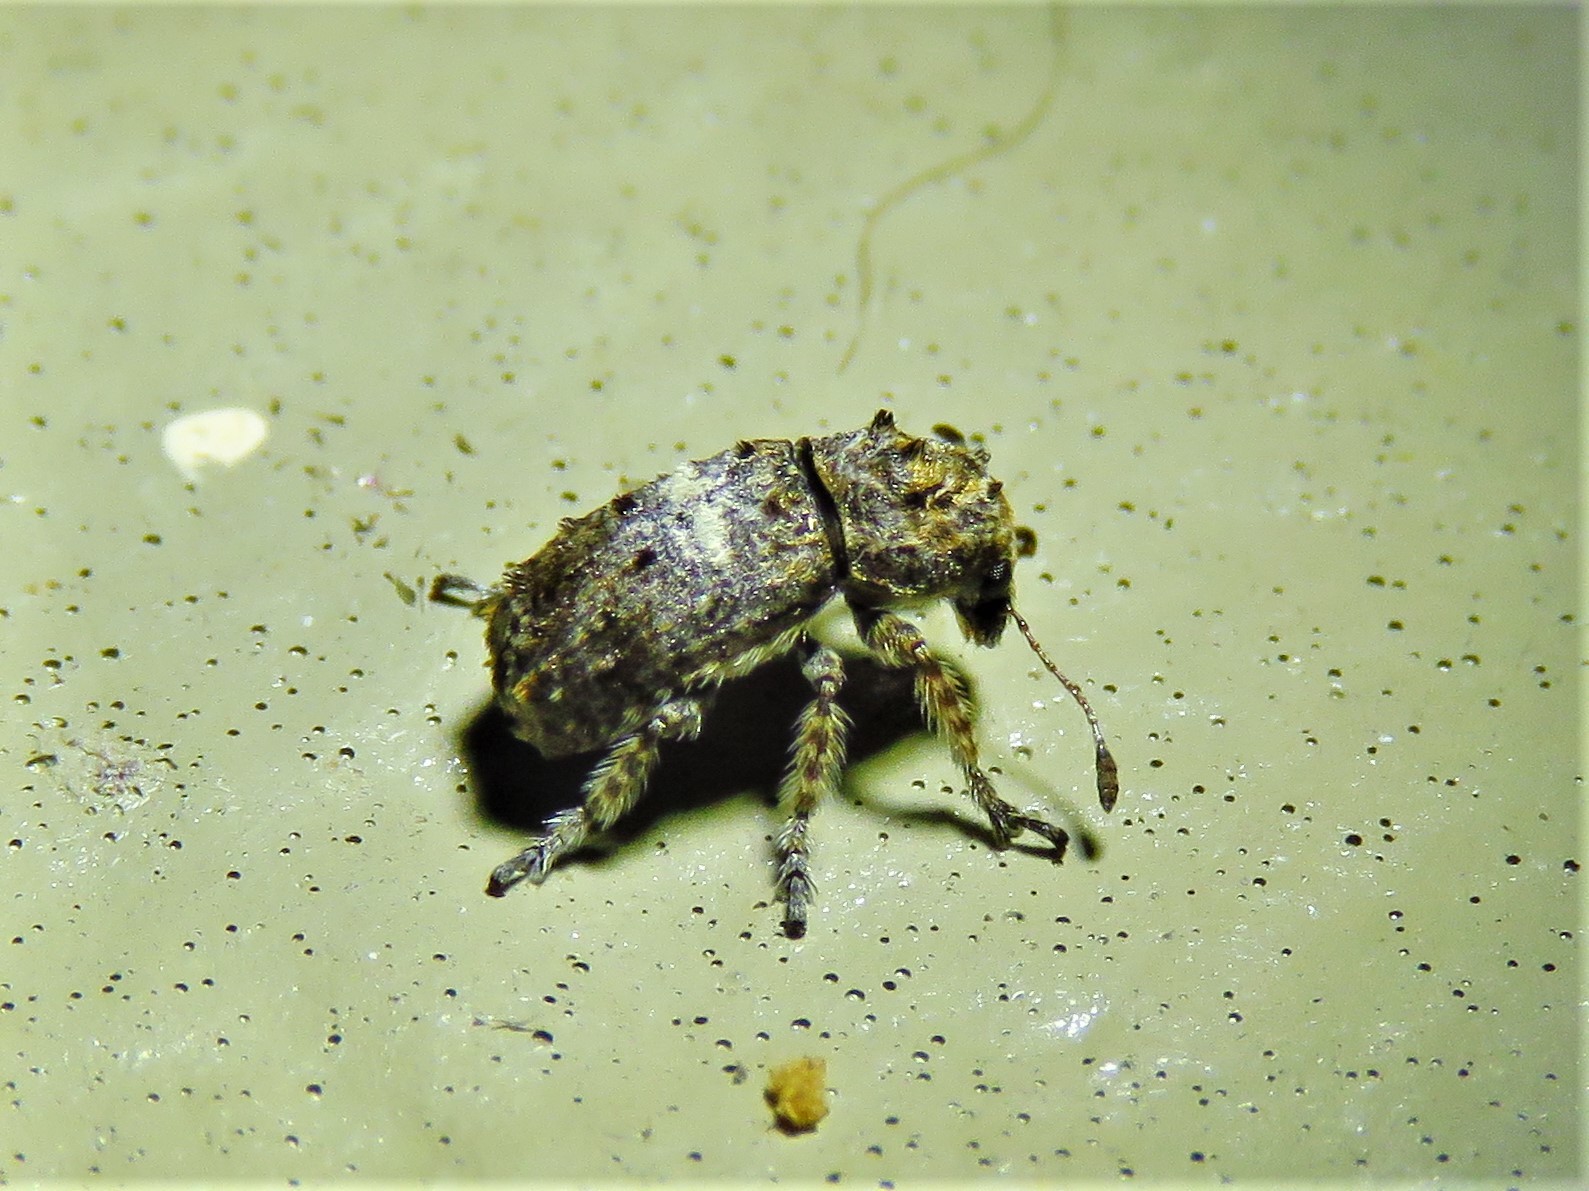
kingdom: Animalia
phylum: Arthropoda
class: Insecta
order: Coleoptera
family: Anthribidae
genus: Toxonotus
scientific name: Toxonotus cornutus
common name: Fungus weevil
